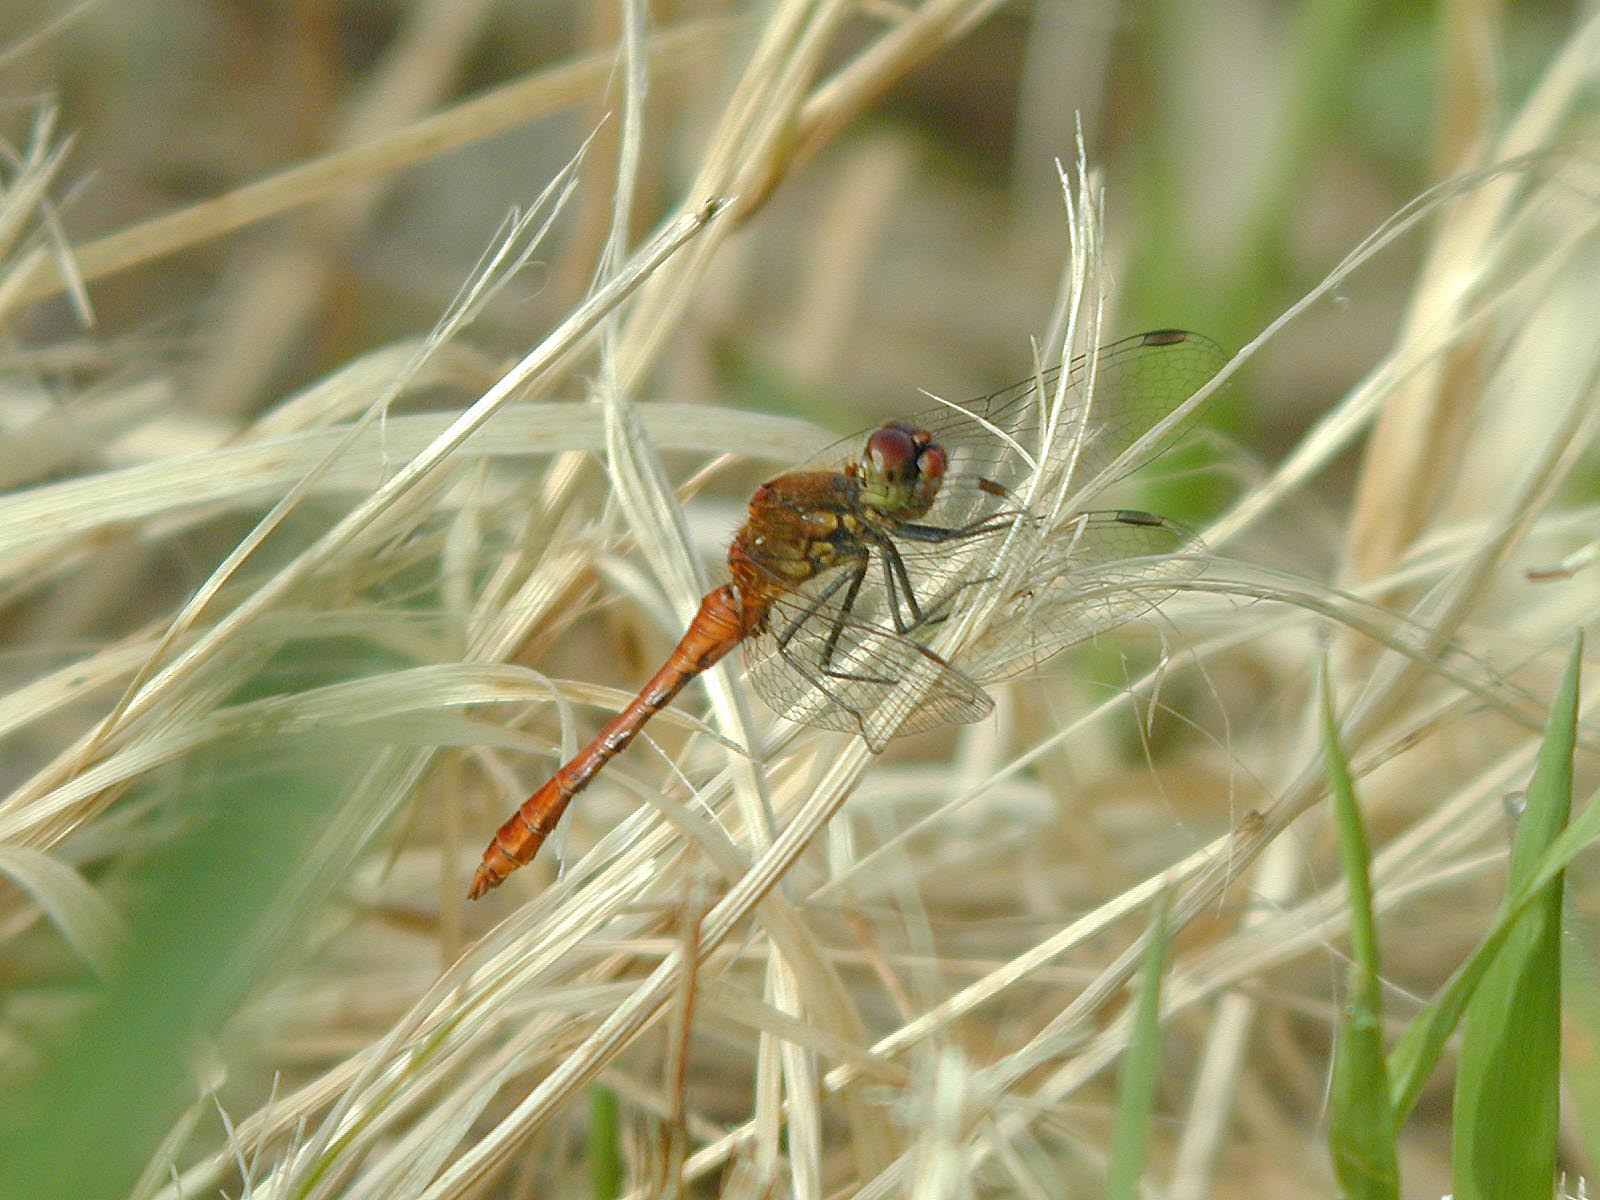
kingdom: Animalia
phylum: Arthropoda
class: Insecta
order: Odonata
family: Libellulidae
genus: Sympetrum
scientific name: Sympetrum sanguineum
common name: Ruddy darter
